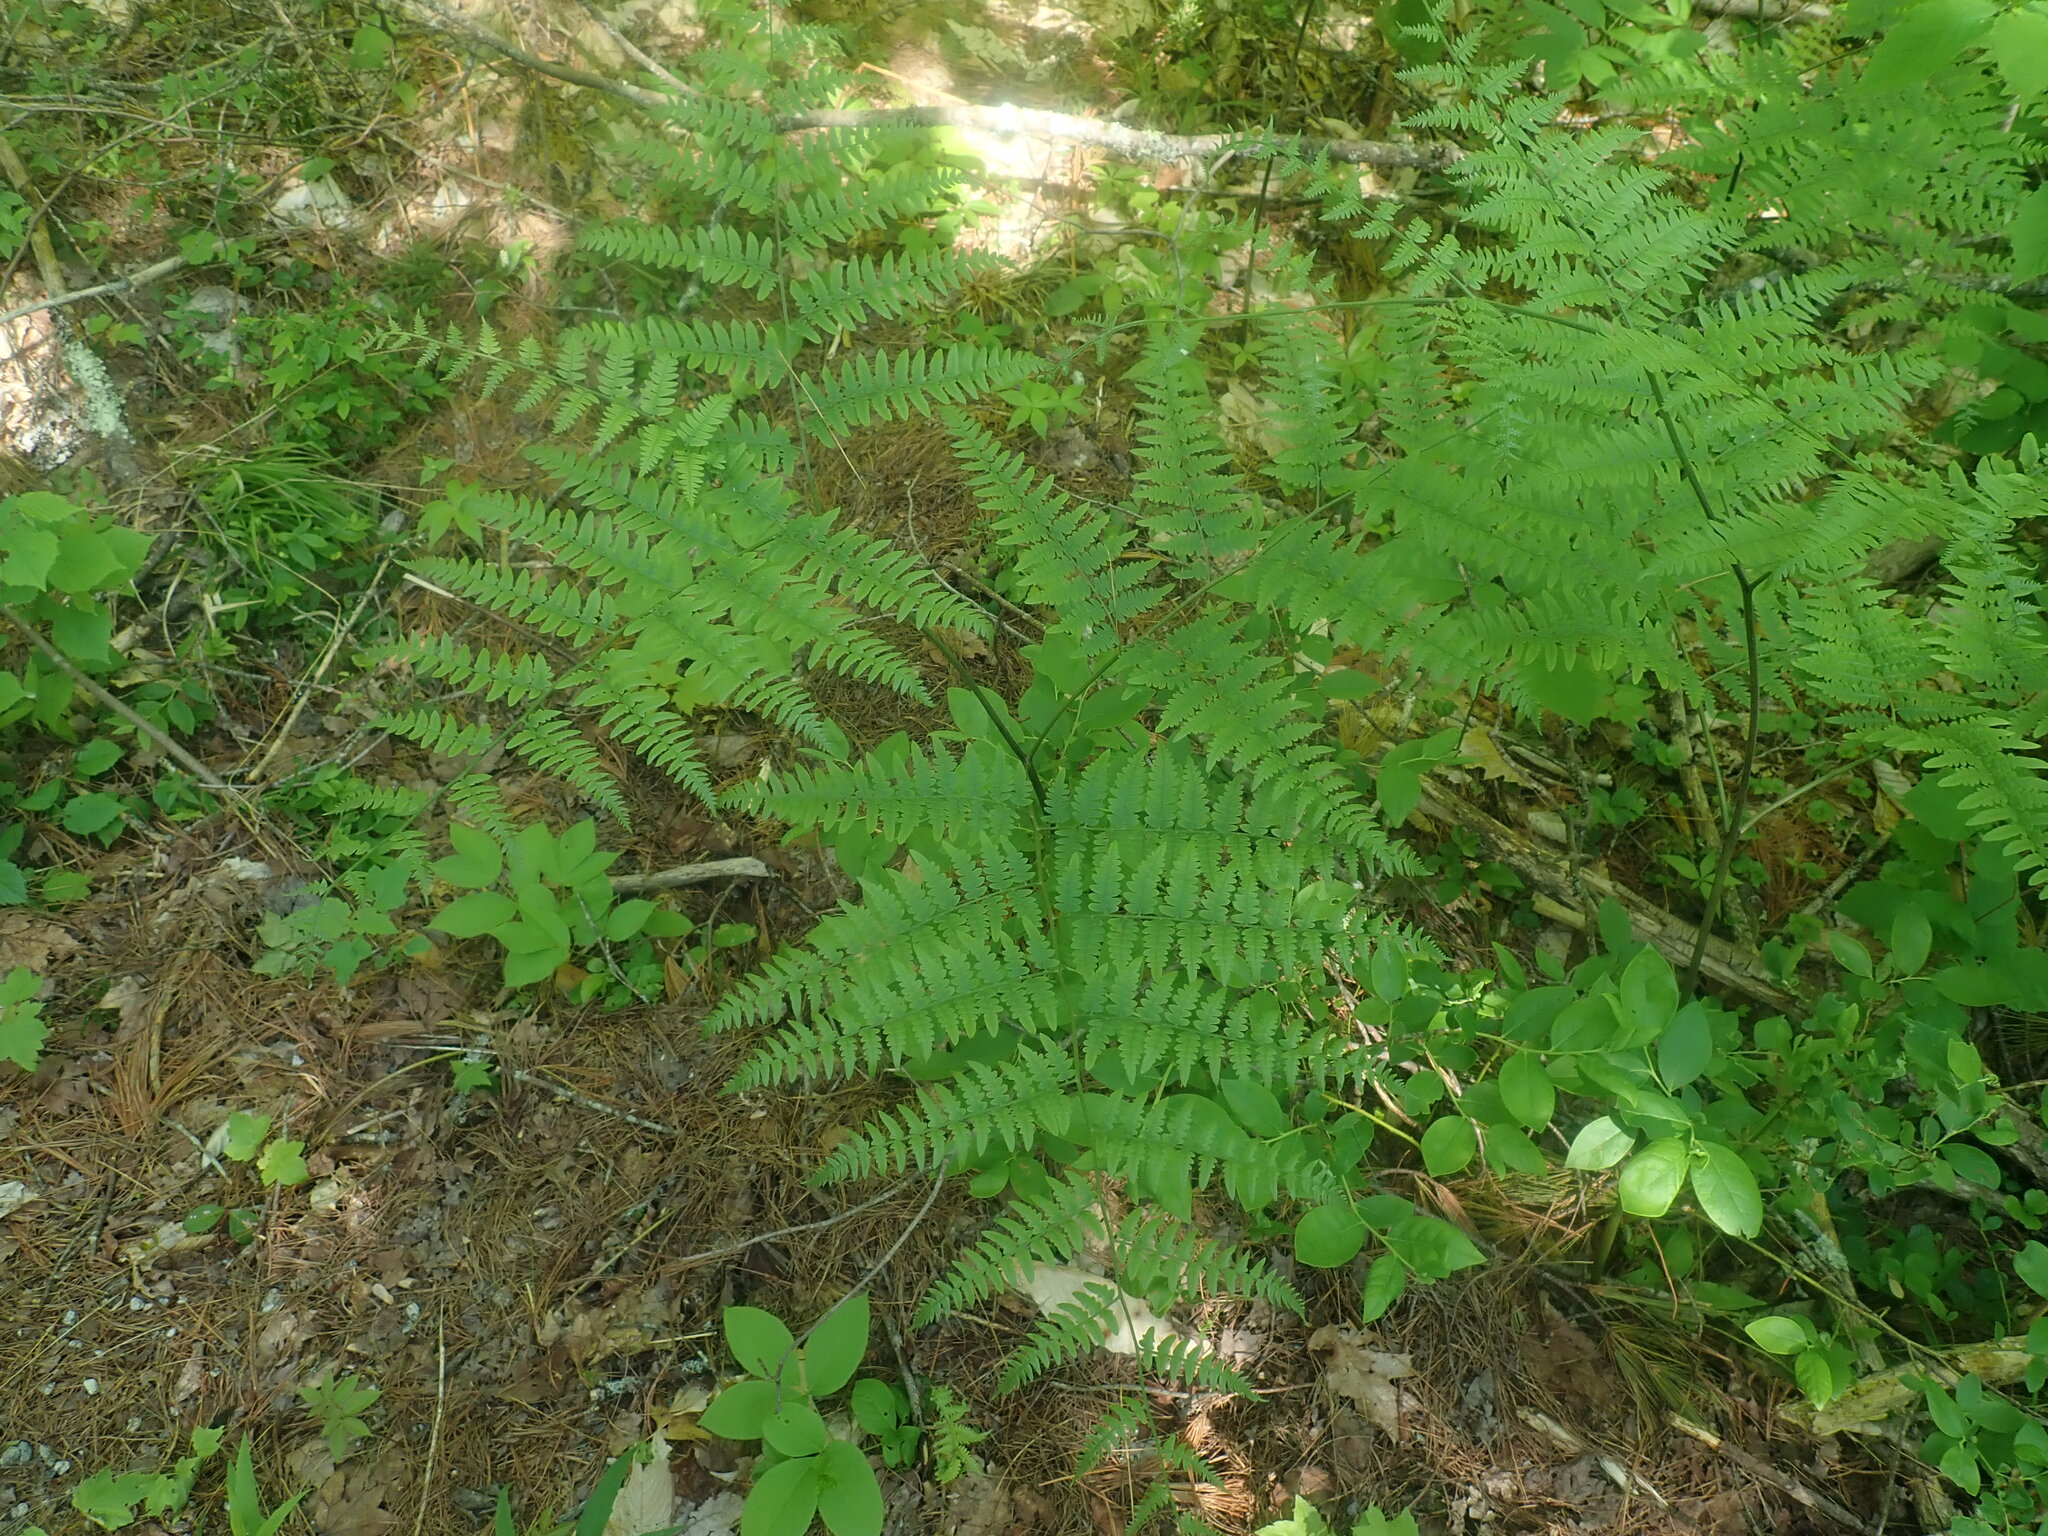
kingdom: Plantae
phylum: Tracheophyta
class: Polypodiopsida
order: Polypodiales
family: Dennstaedtiaceae
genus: Pteridium
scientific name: Pteridium aquilinum
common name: Bracken
